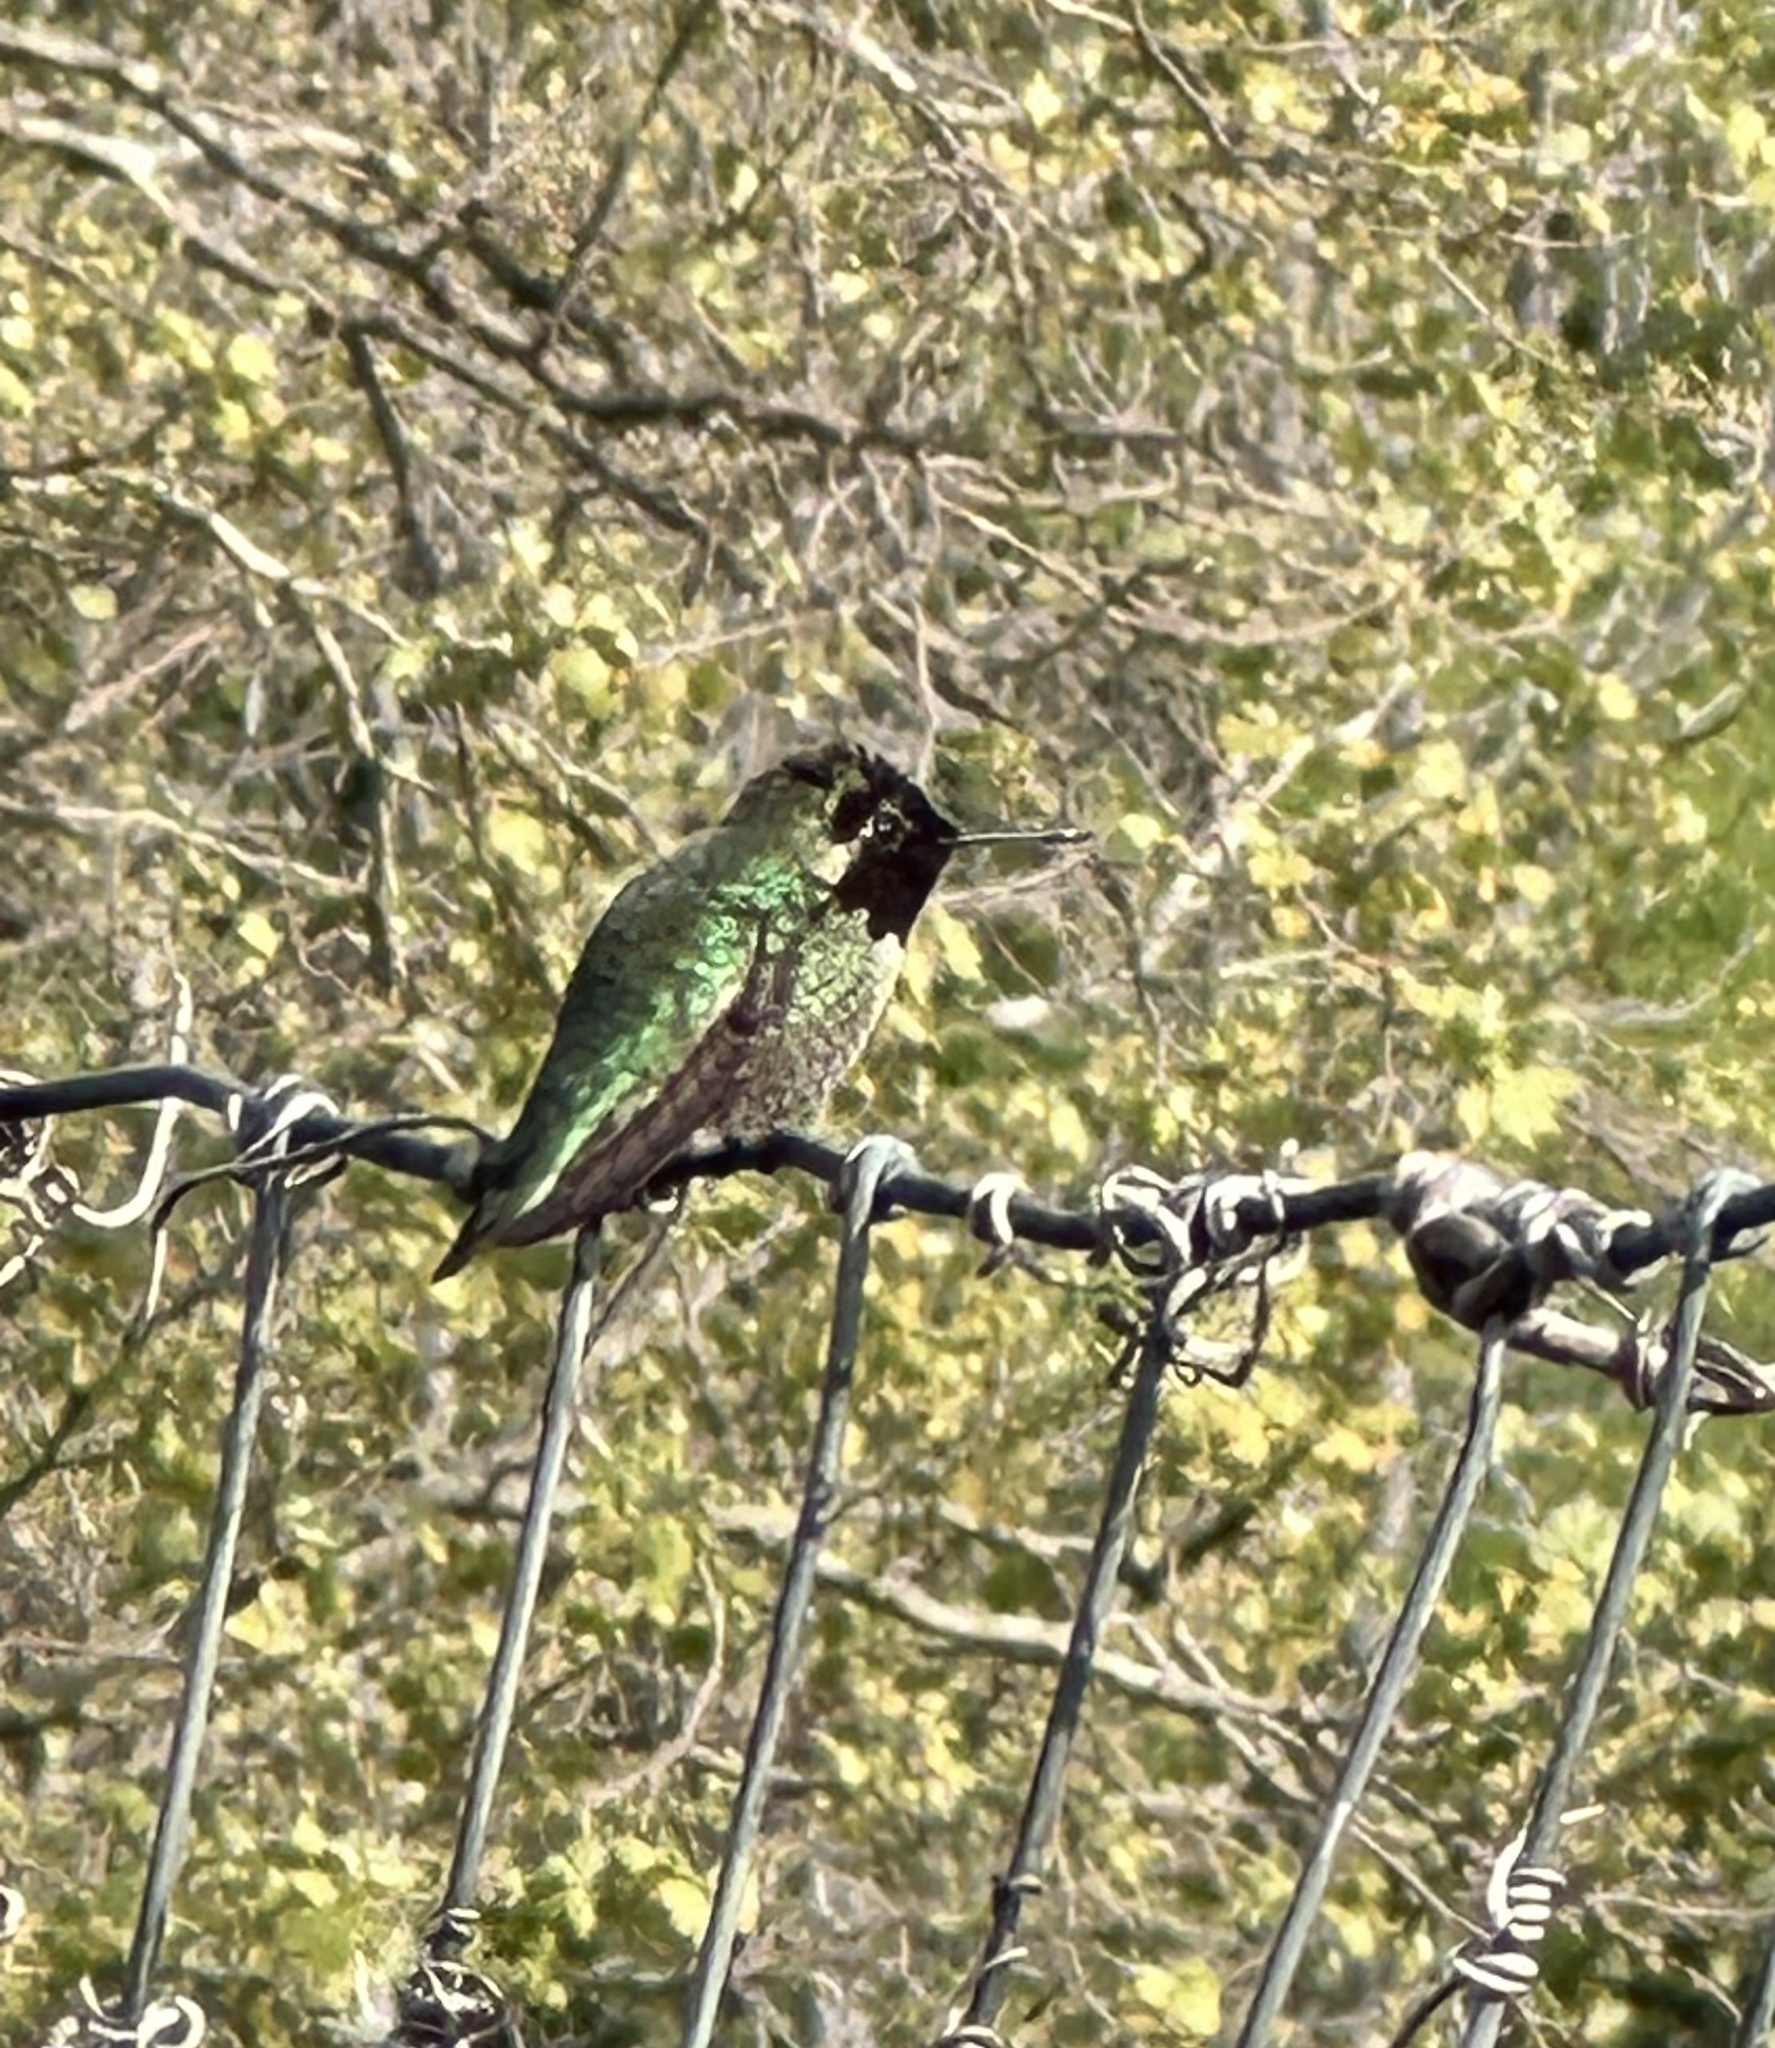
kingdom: Animalia
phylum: Chordata
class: Aves
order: Apodiformes
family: Trochilidae
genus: Calypte
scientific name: Calypte anna
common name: Anna's hummingbird
